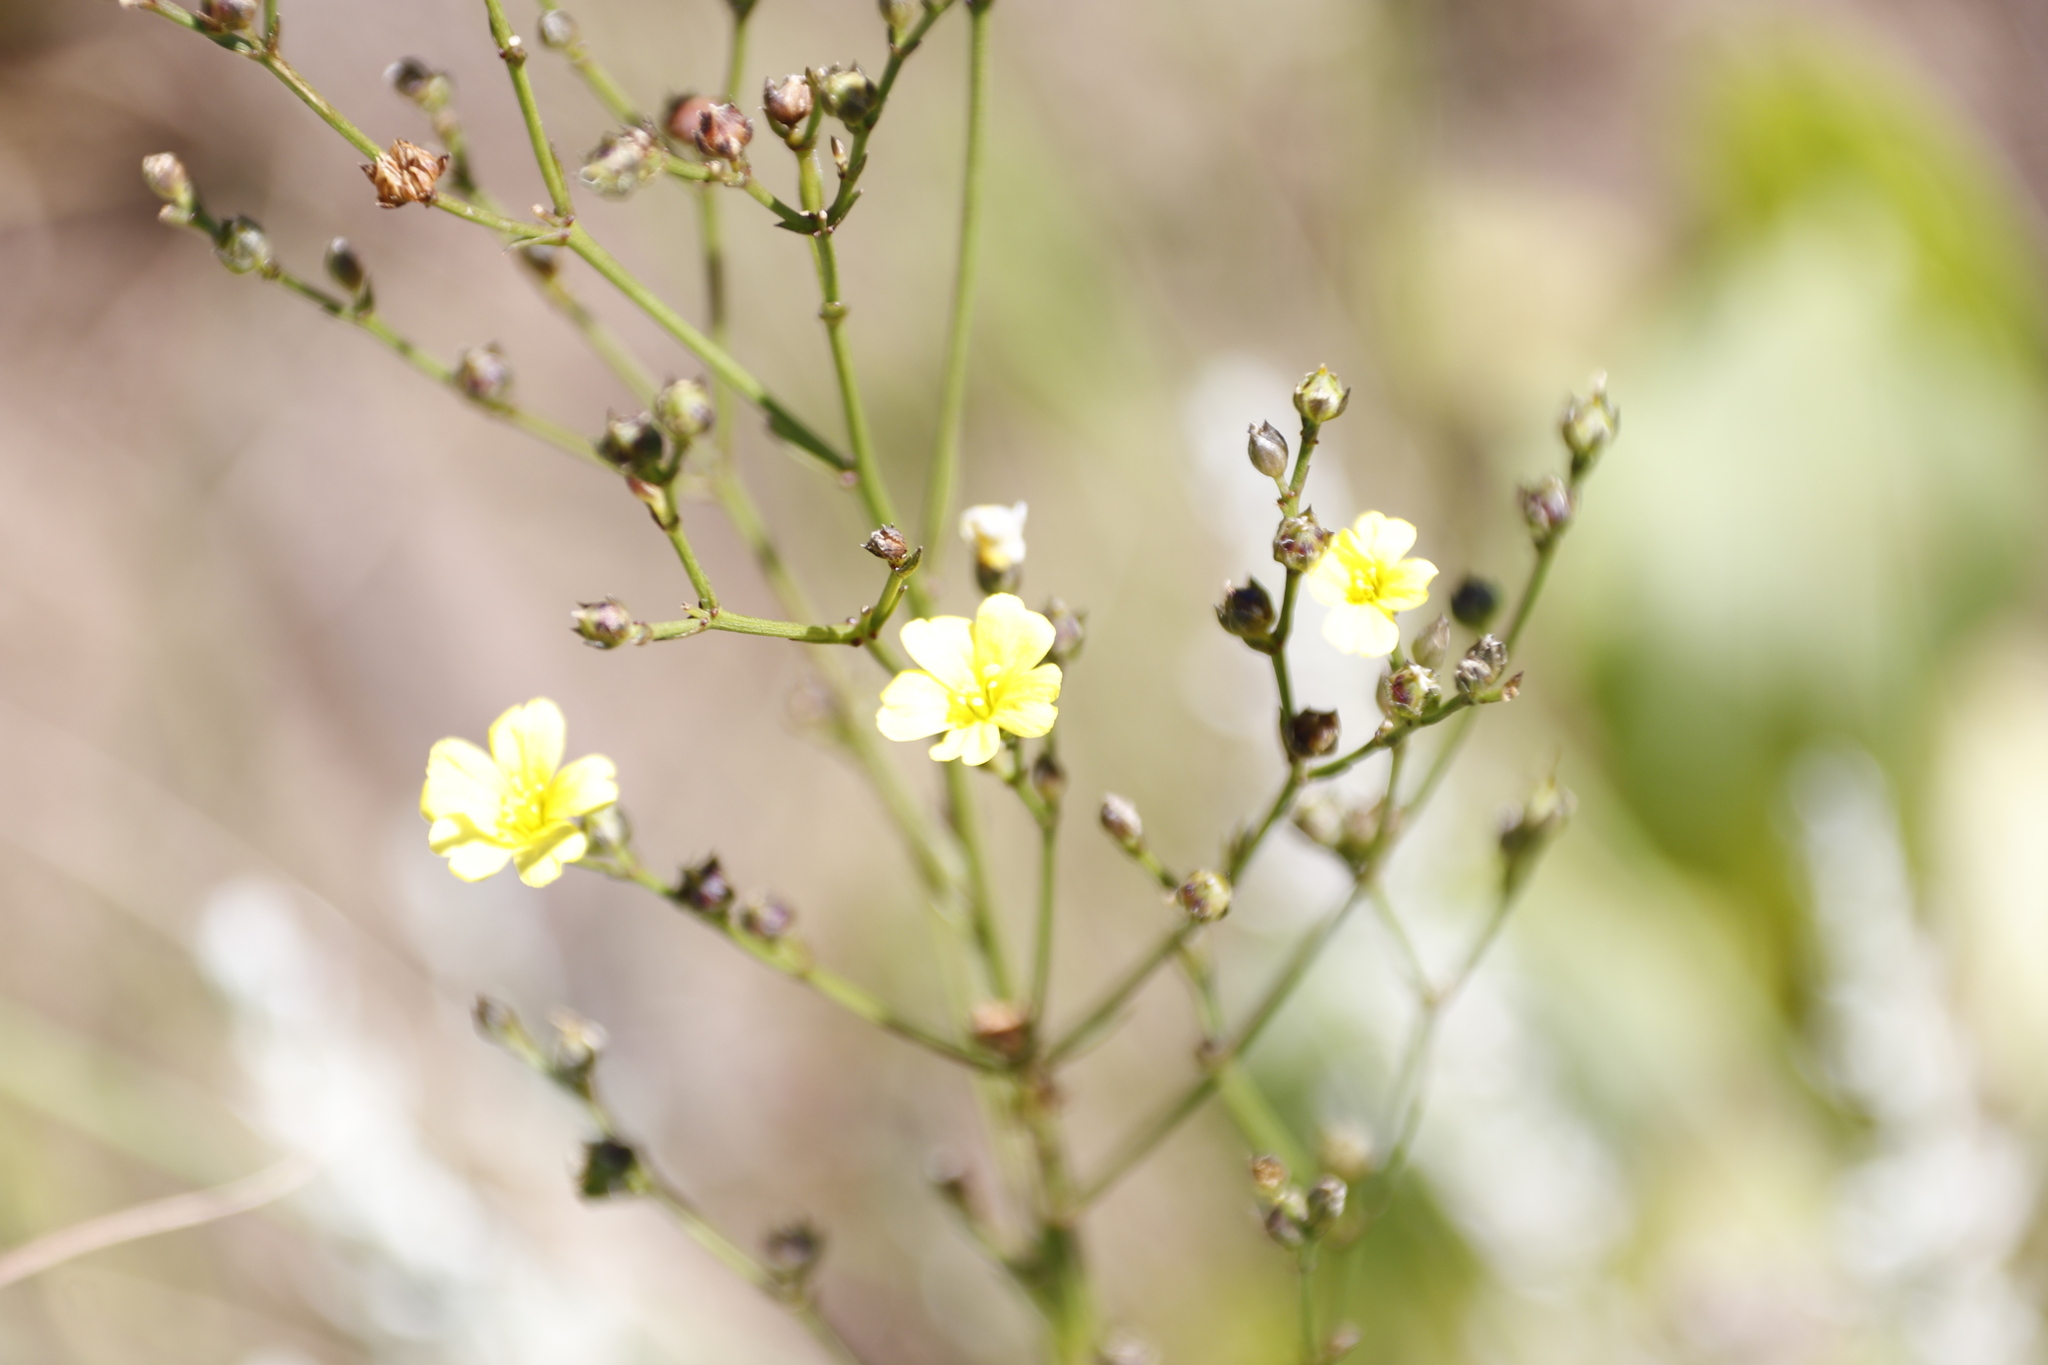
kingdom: Plantae
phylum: Tracheophyta
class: Magnoliopsida
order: Malpighiales
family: Linaceae
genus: Linum
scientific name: Linum thunbergii
